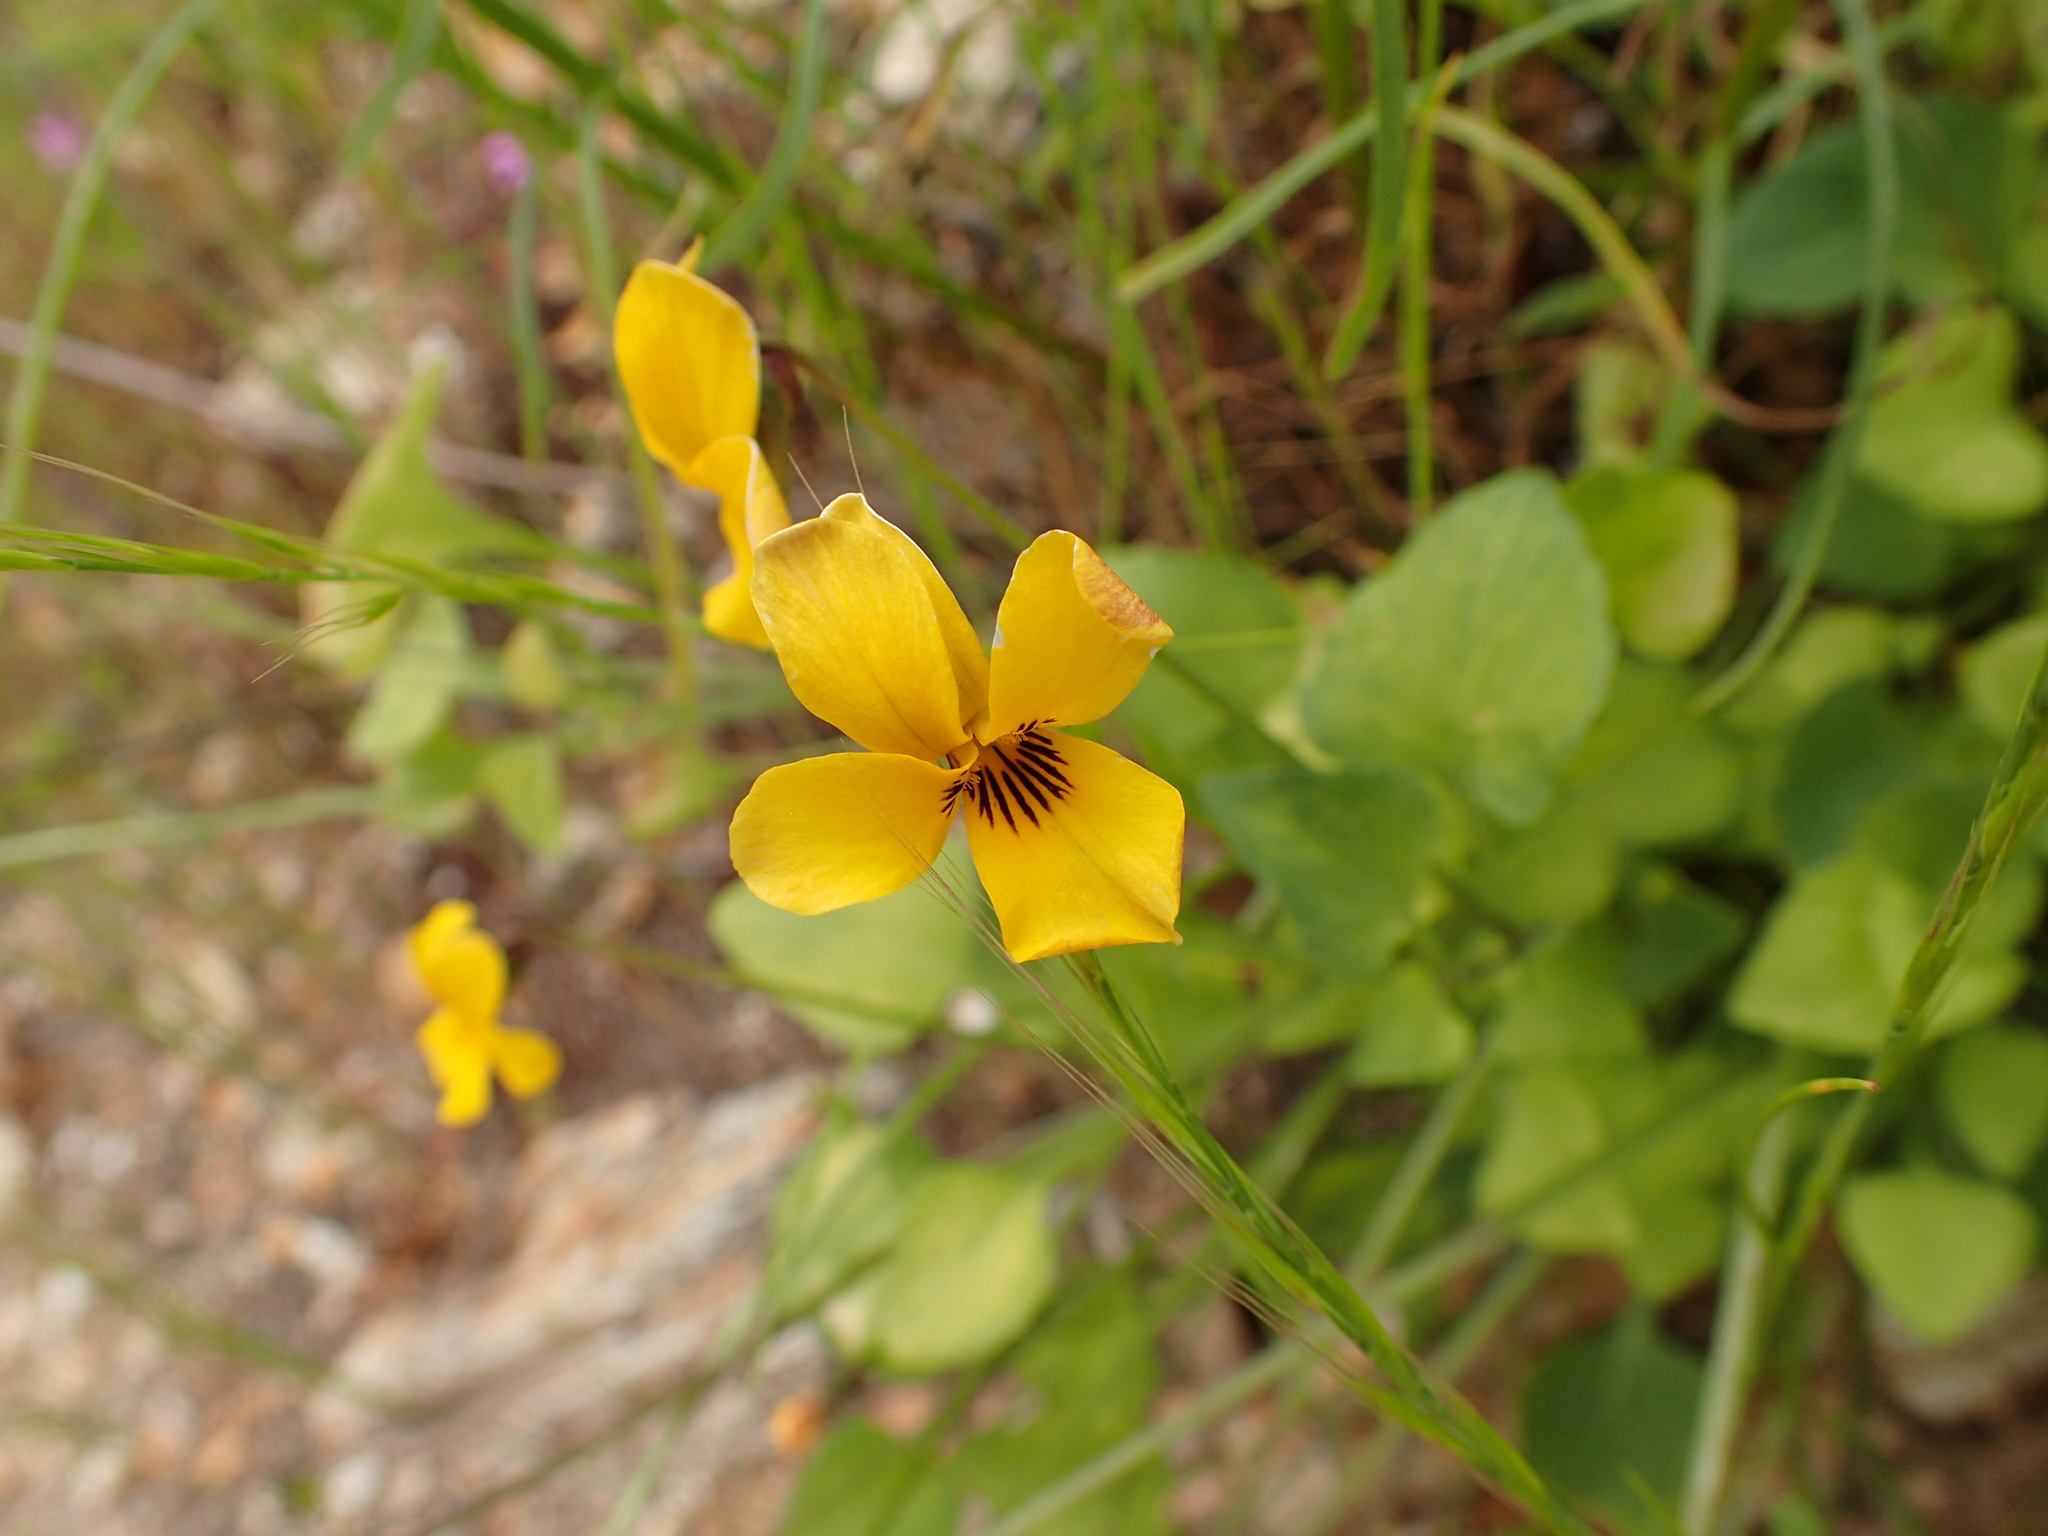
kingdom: Plantae
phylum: Tracheophyta
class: Magnoliopsida
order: Malpighiales
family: Violaceae
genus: Viola
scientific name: Viola pedunculata
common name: California golden violet
